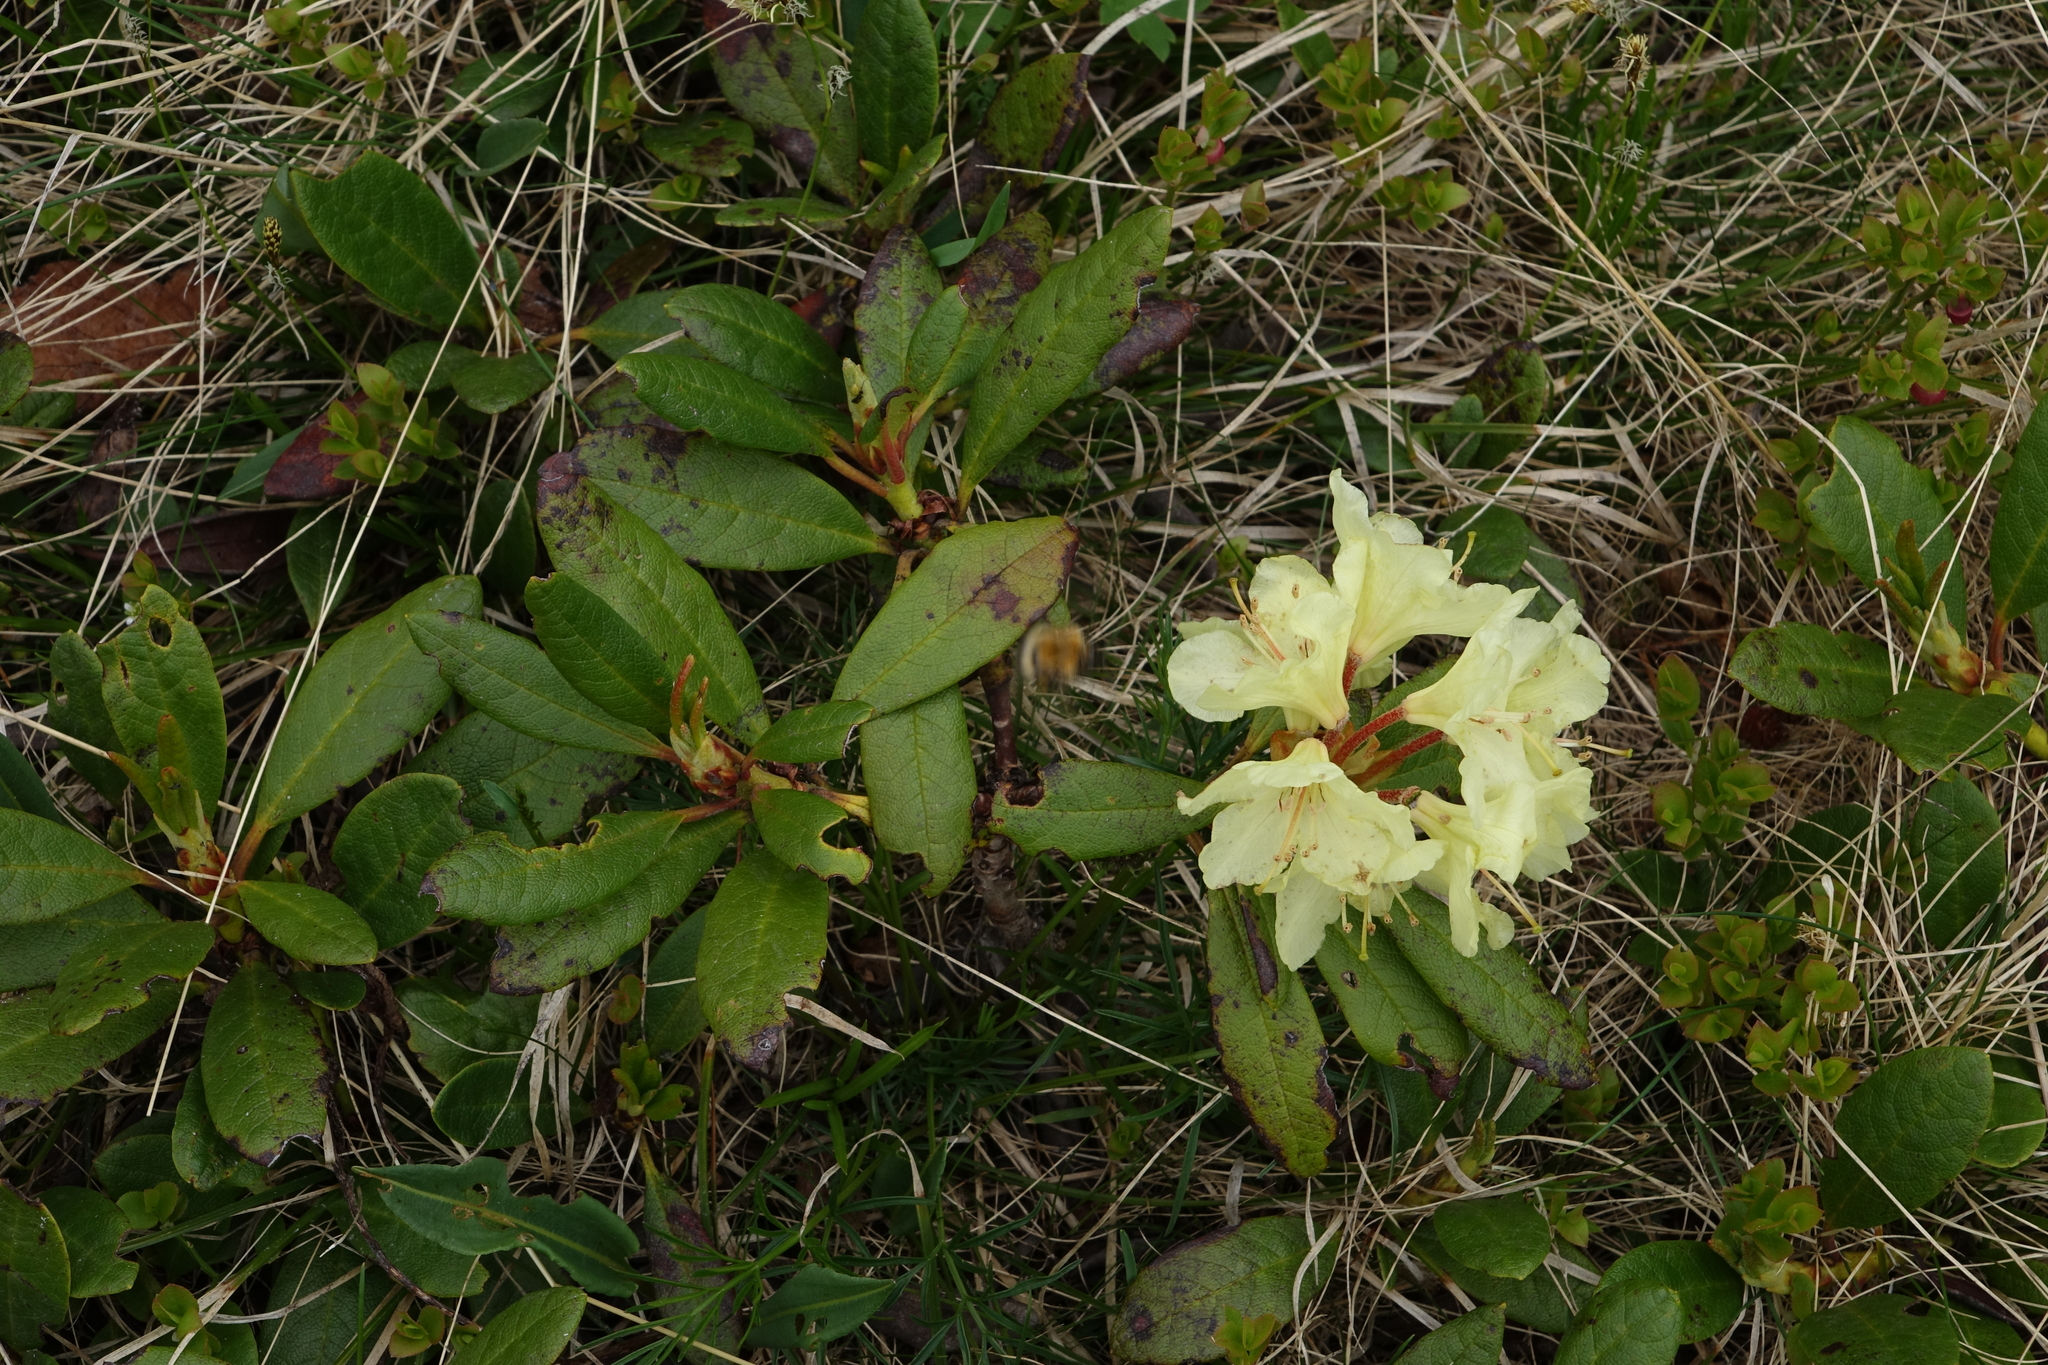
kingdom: Plantae
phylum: Tracheophyta
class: Magnoliopsida
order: Ericales
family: Ericaceae
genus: Rhododendron
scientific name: Rhododendron aureum
